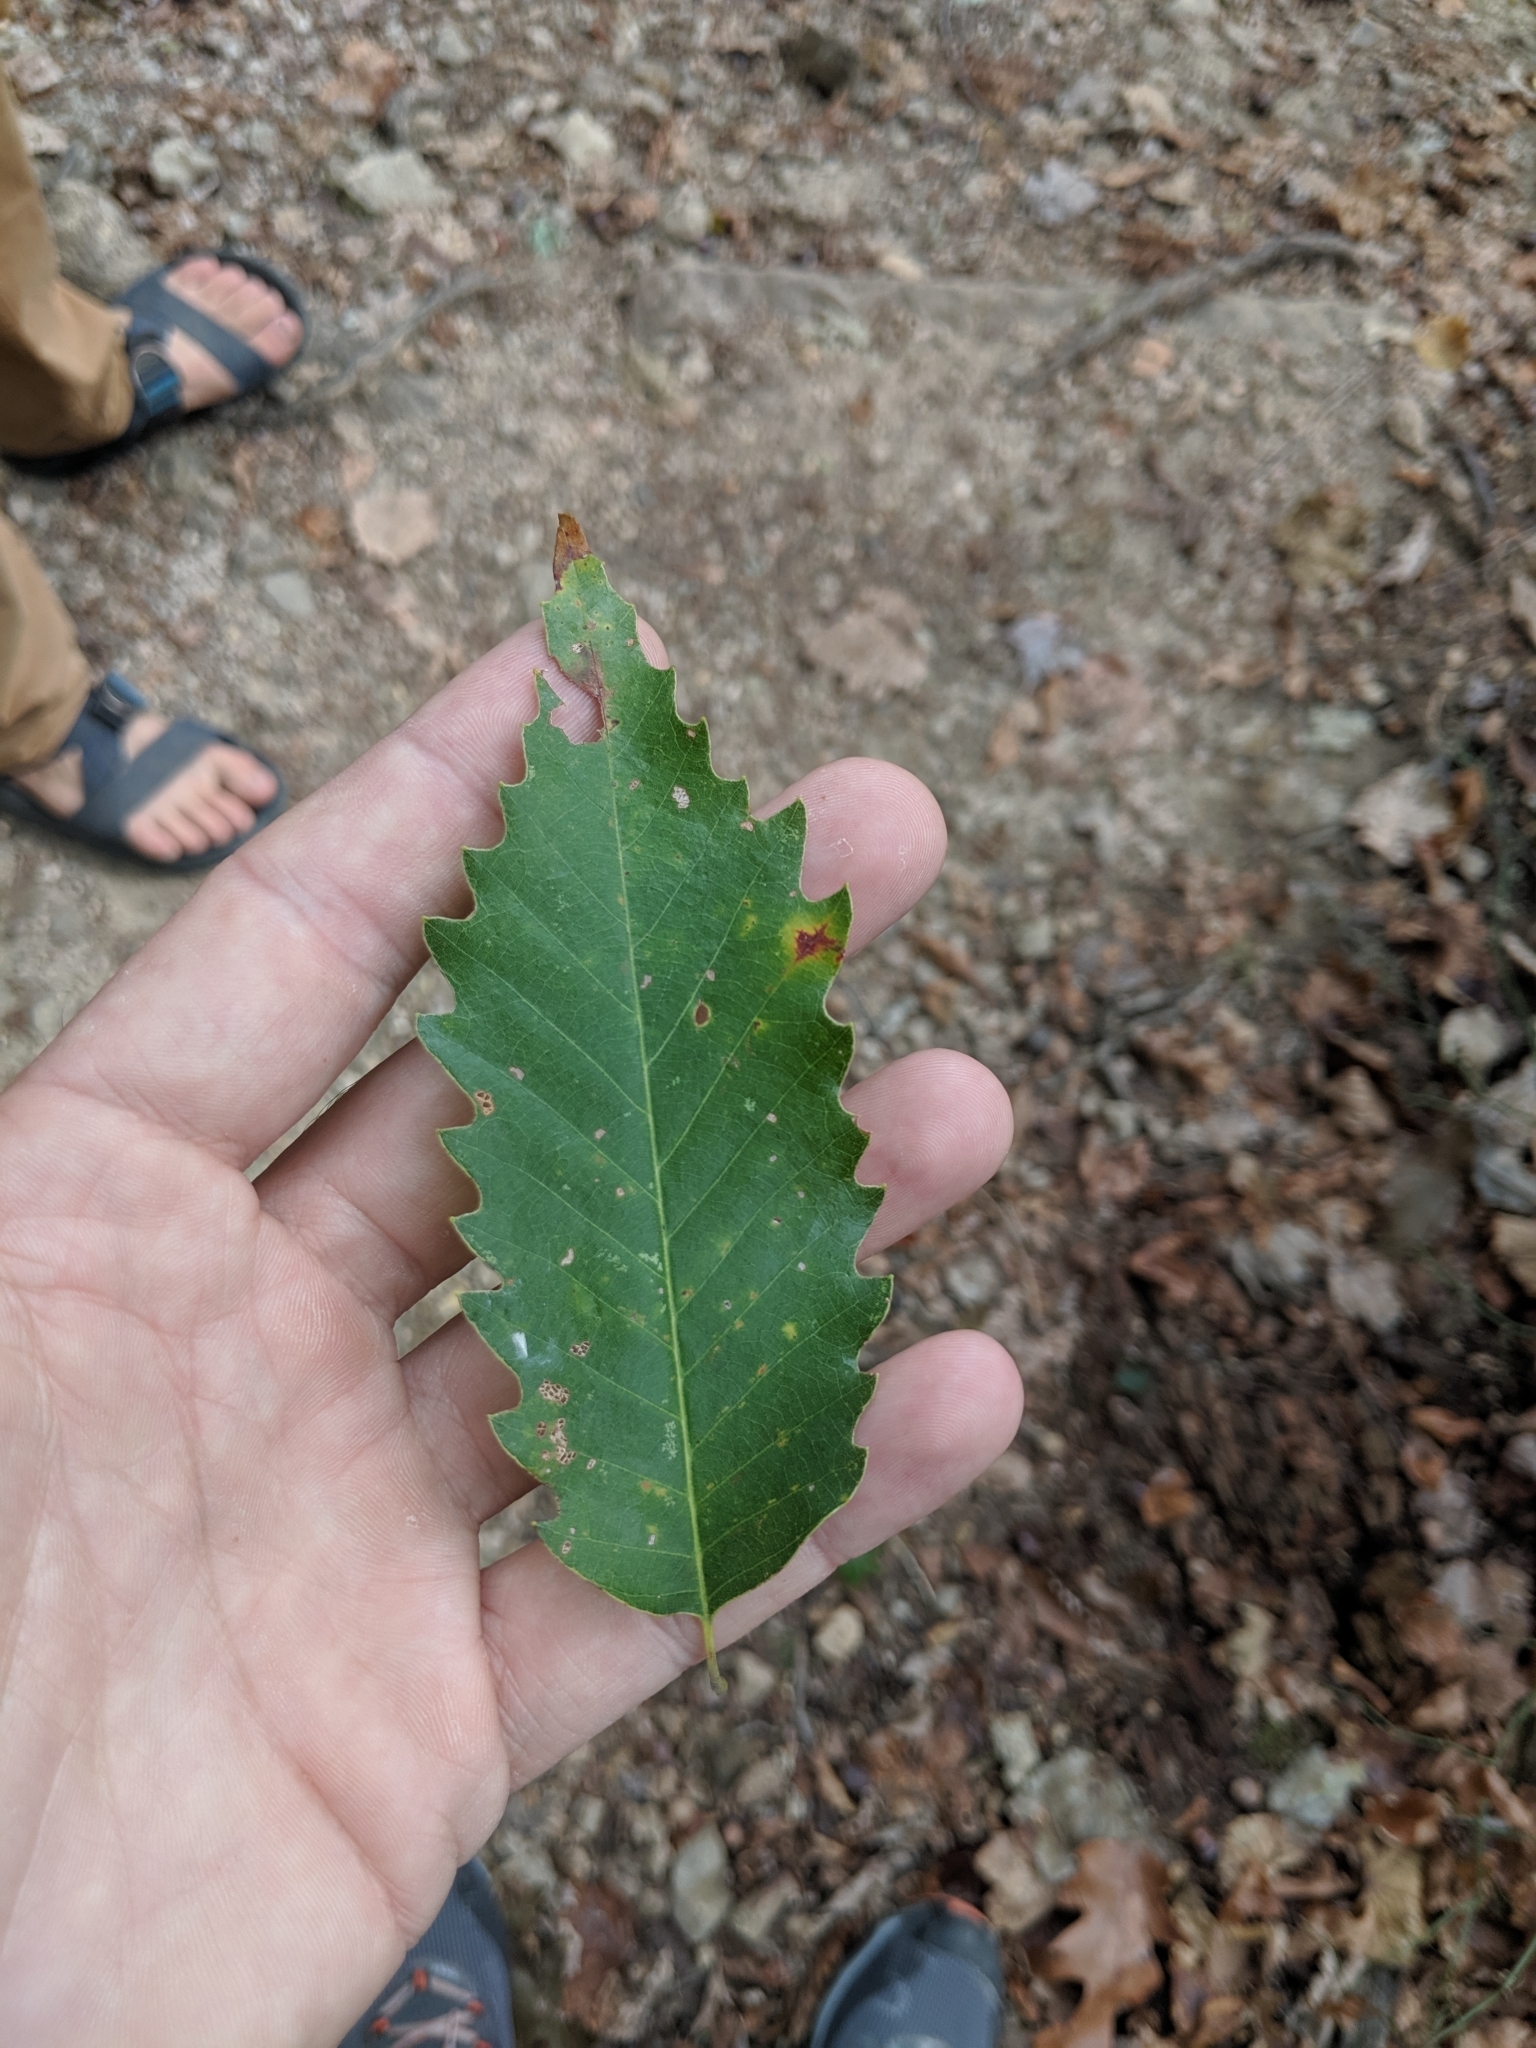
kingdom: Plantae
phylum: Tracheophyta
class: Magnoliopsida
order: Fagales
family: Fagaceae
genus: Quercus
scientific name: Quercus muehlenbergii
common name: Chinkapin oak
